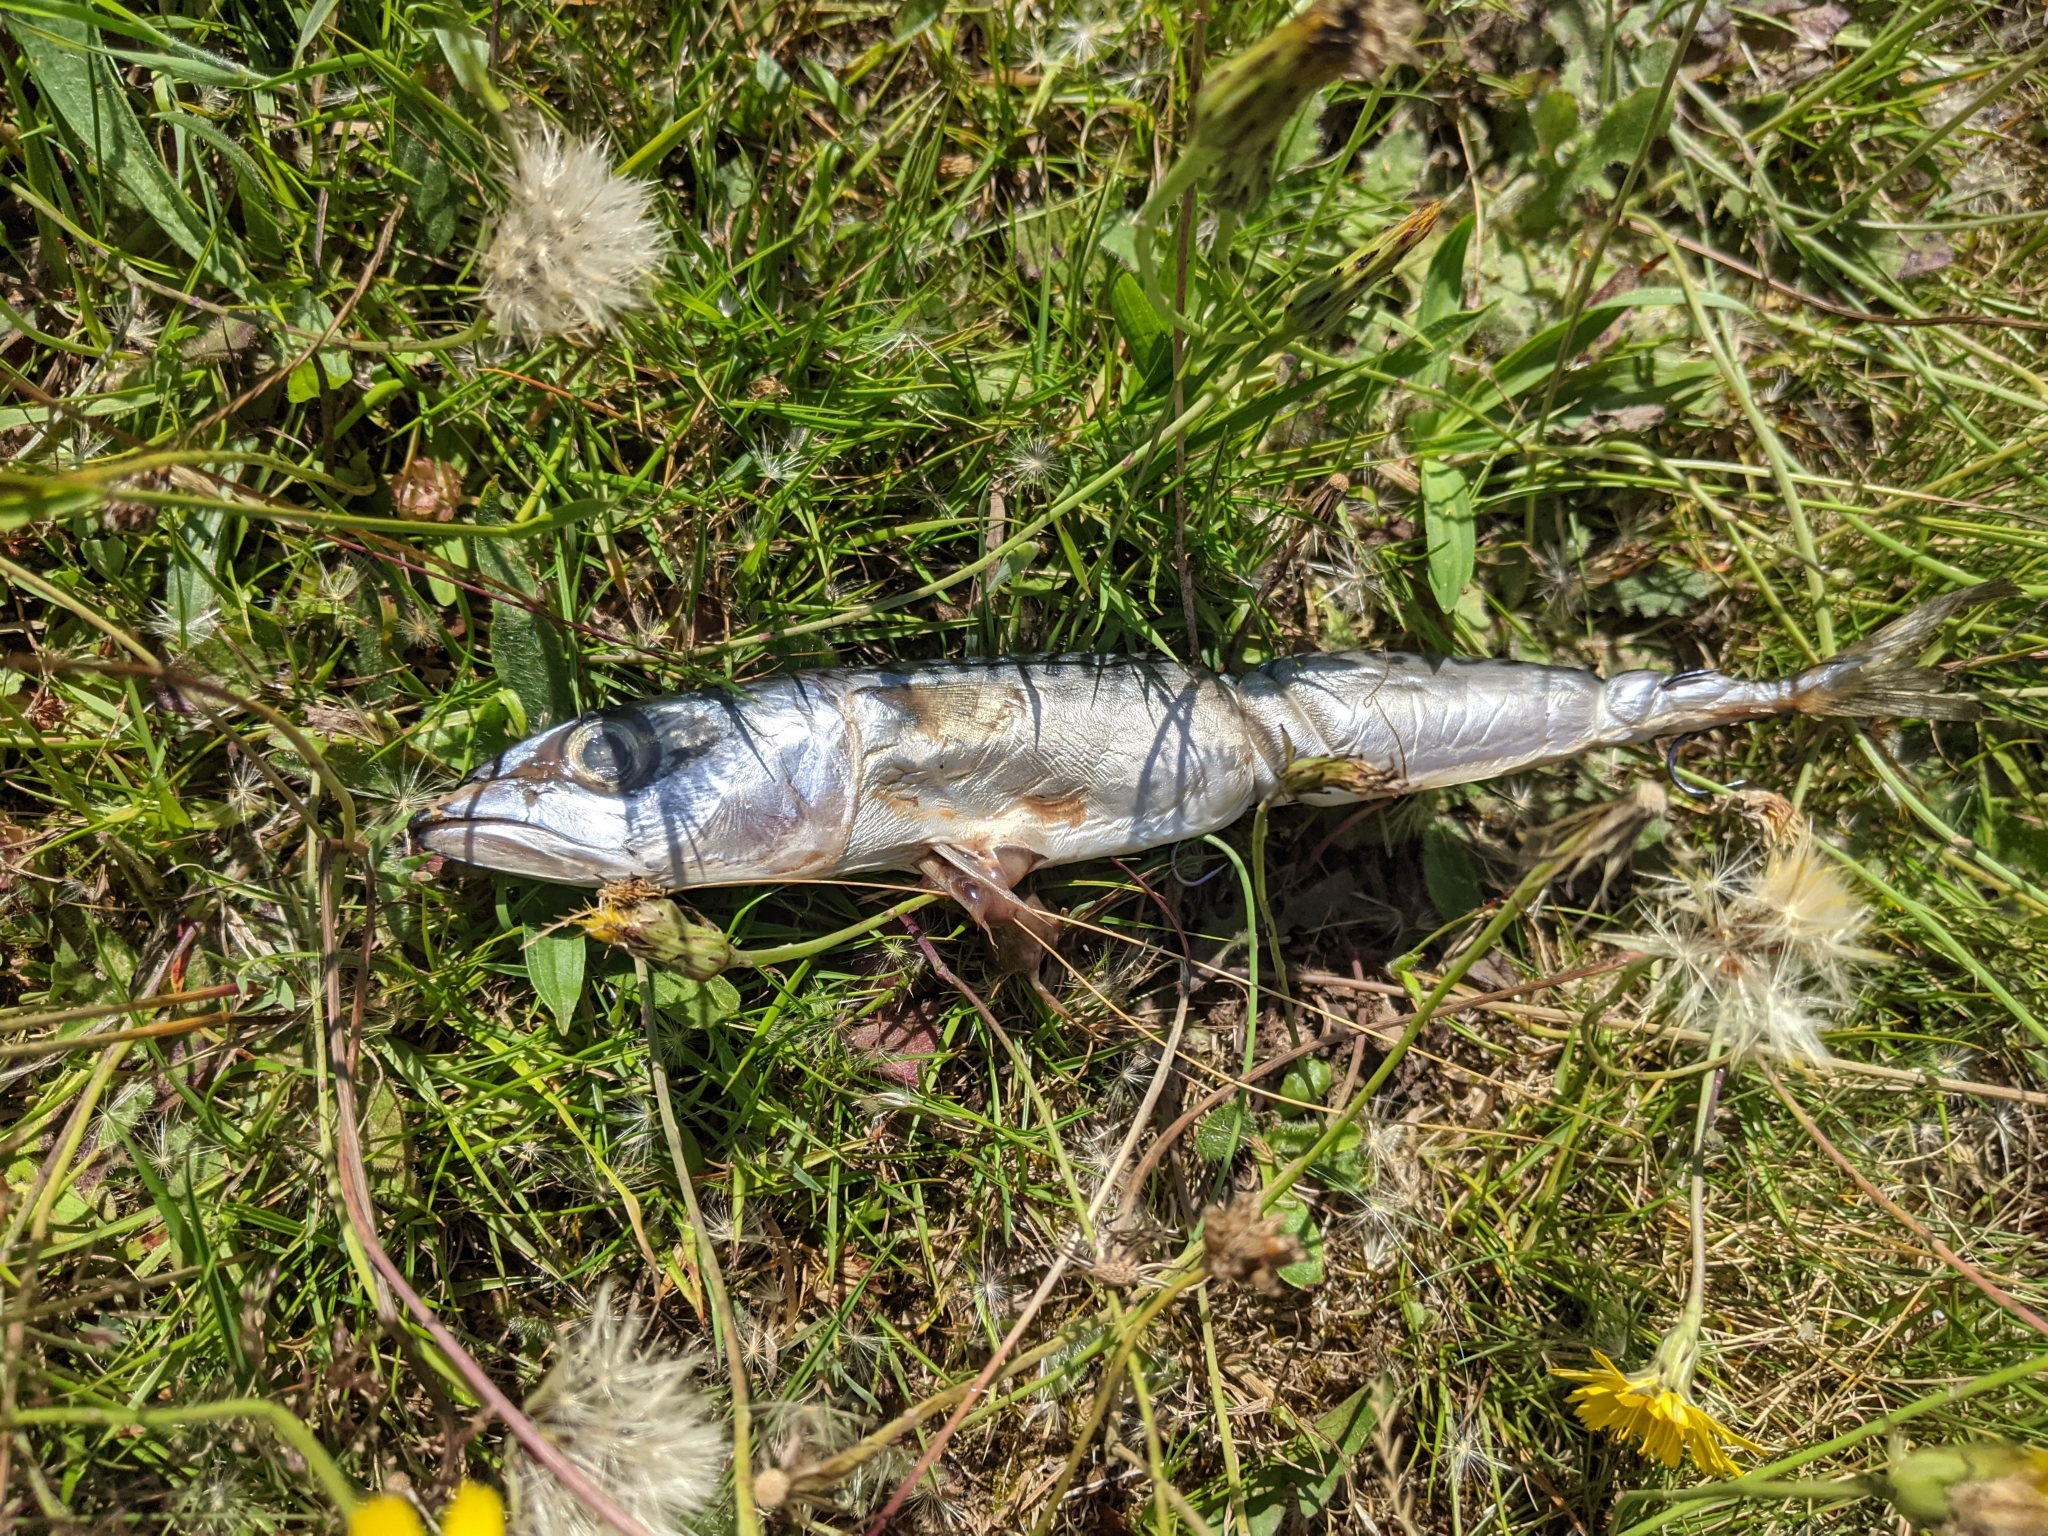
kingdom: Animalia
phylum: Chordata
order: Perciformes
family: Scombridae
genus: Scomber
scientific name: Scomber scombrus
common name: Mackerel
